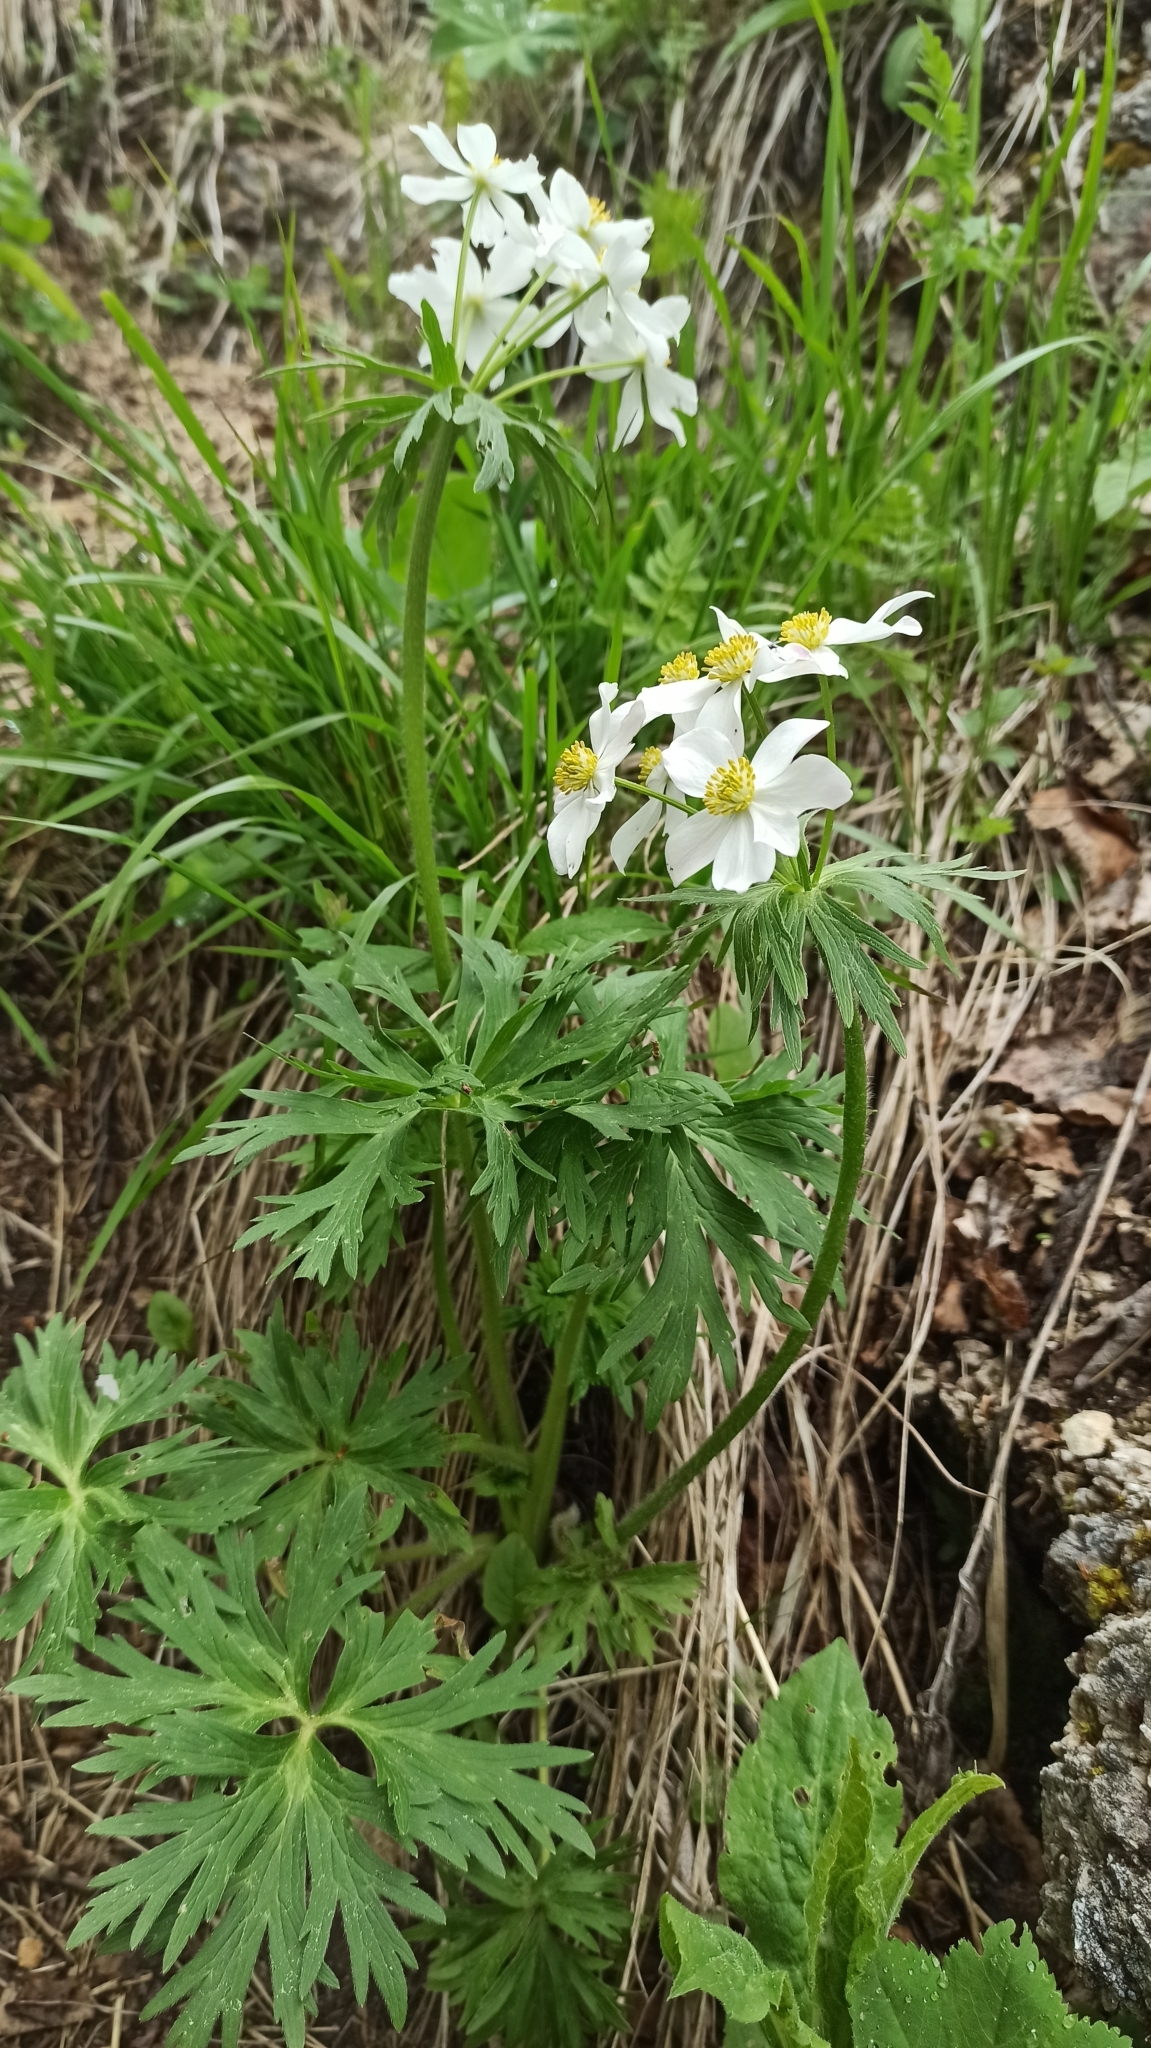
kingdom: Plantae
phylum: Tracheophyta
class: Magnoliopsida
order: Ranunculales
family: Ranunculaceae
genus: Anemonastrum
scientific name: Anemonastrum narcissiflorum
